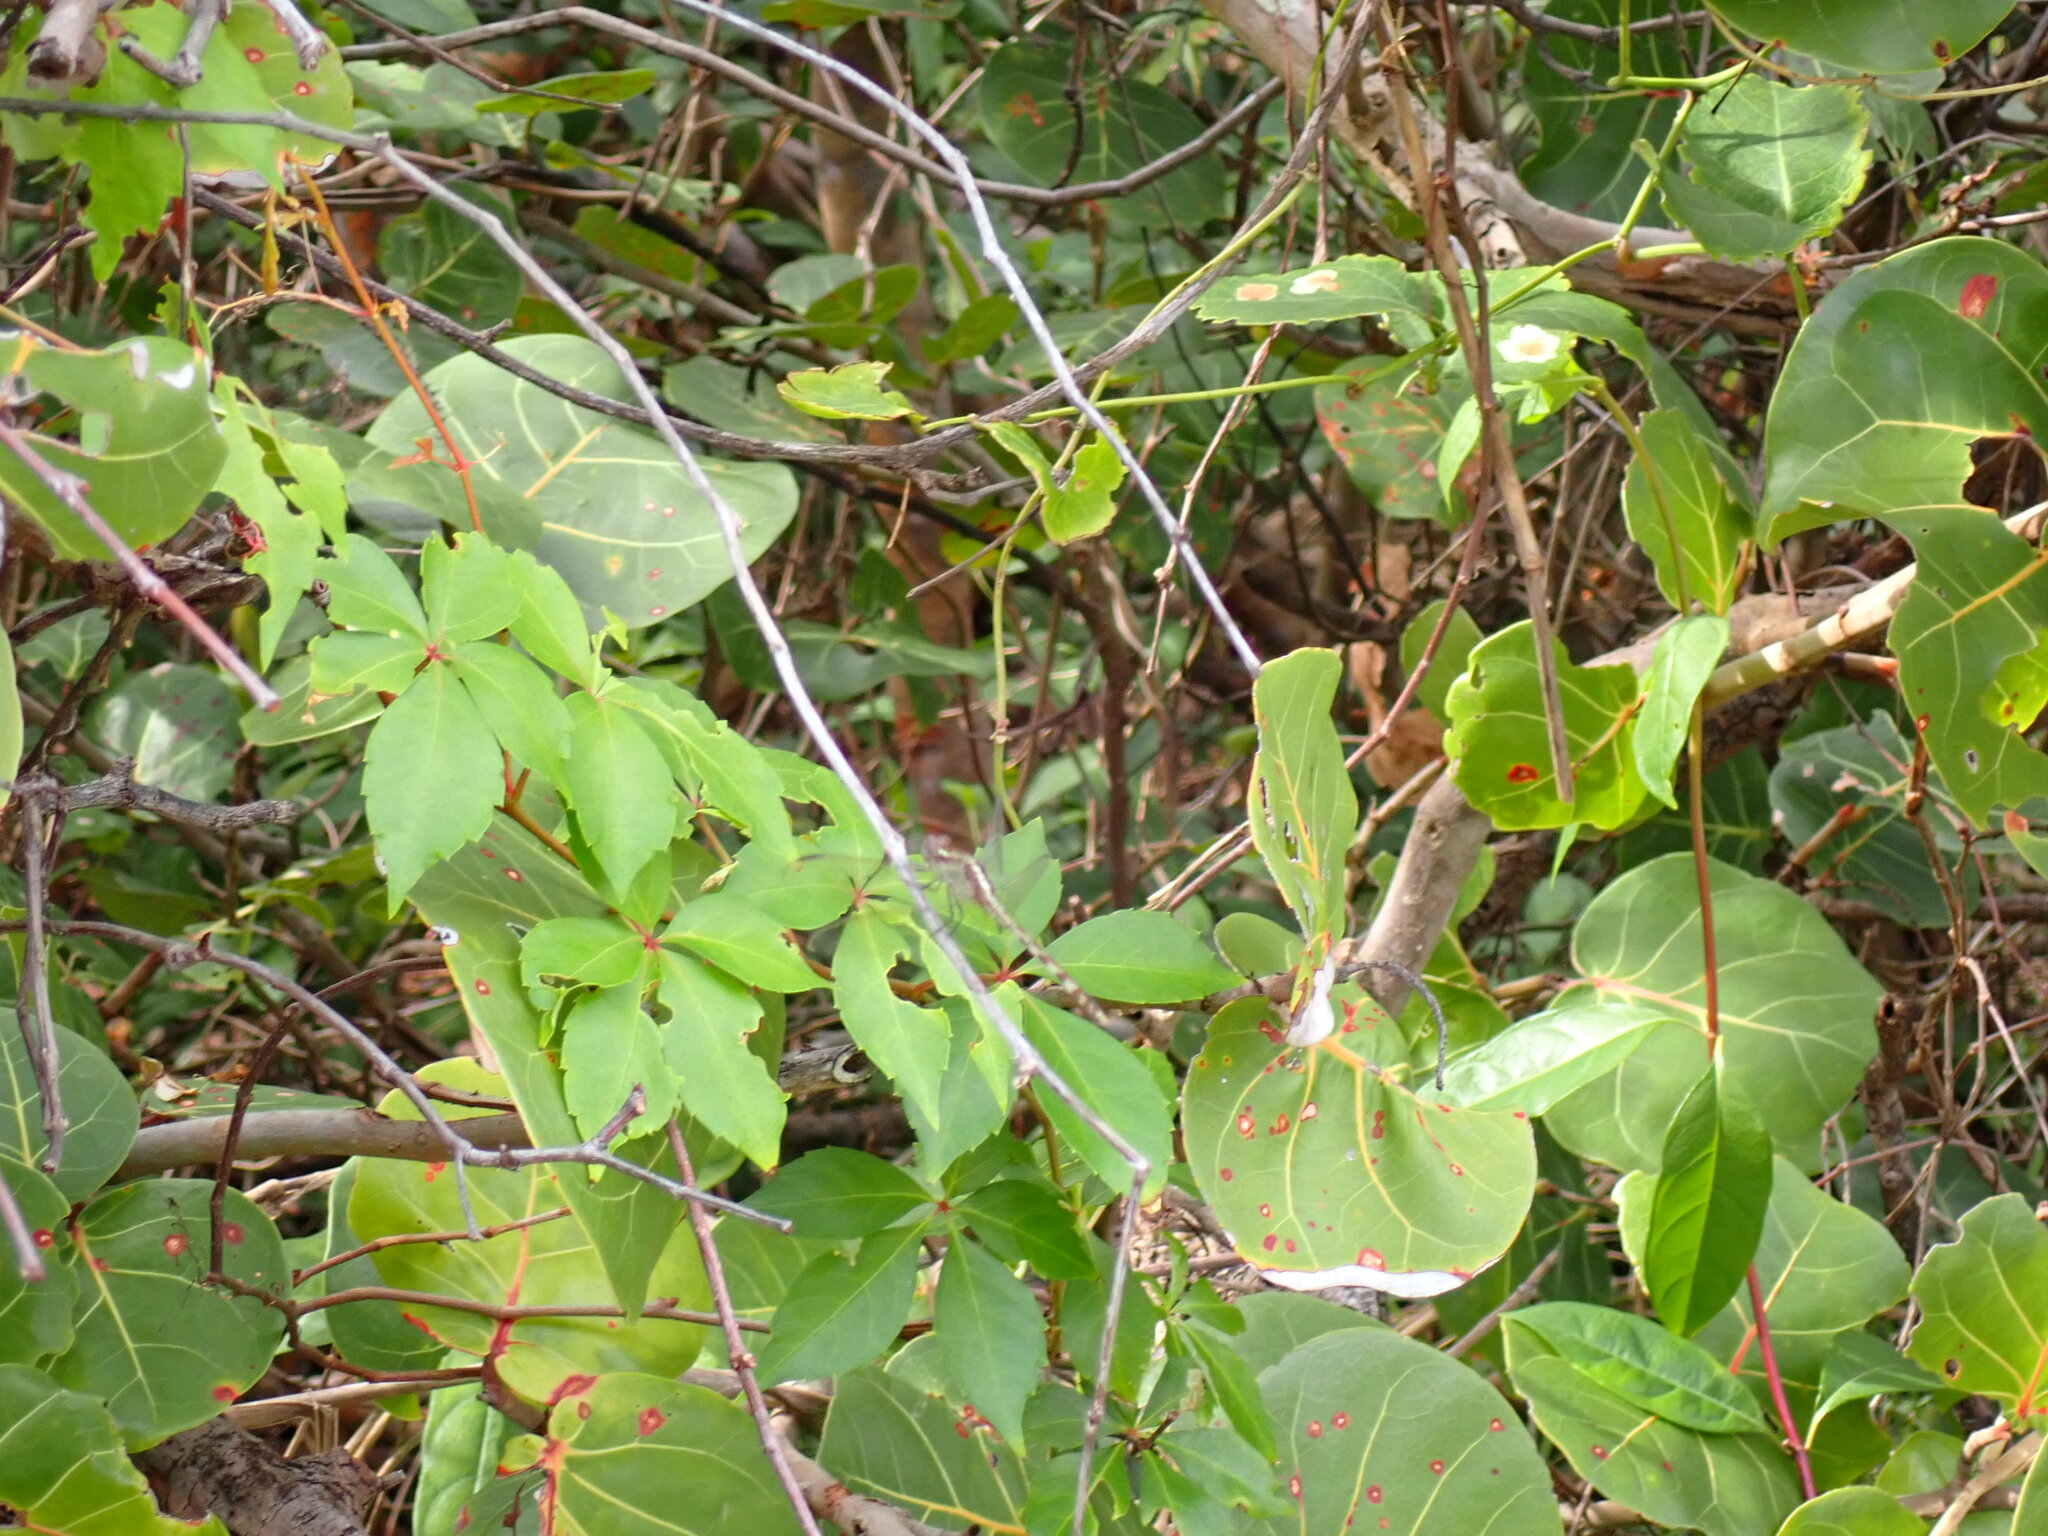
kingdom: Plantae
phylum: Tracheophyta
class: Magnoliopsida
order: Vitales
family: Vitaceae
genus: Parthenocissus
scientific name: Parthenocissus quinquefolia
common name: Virginia-creeper
